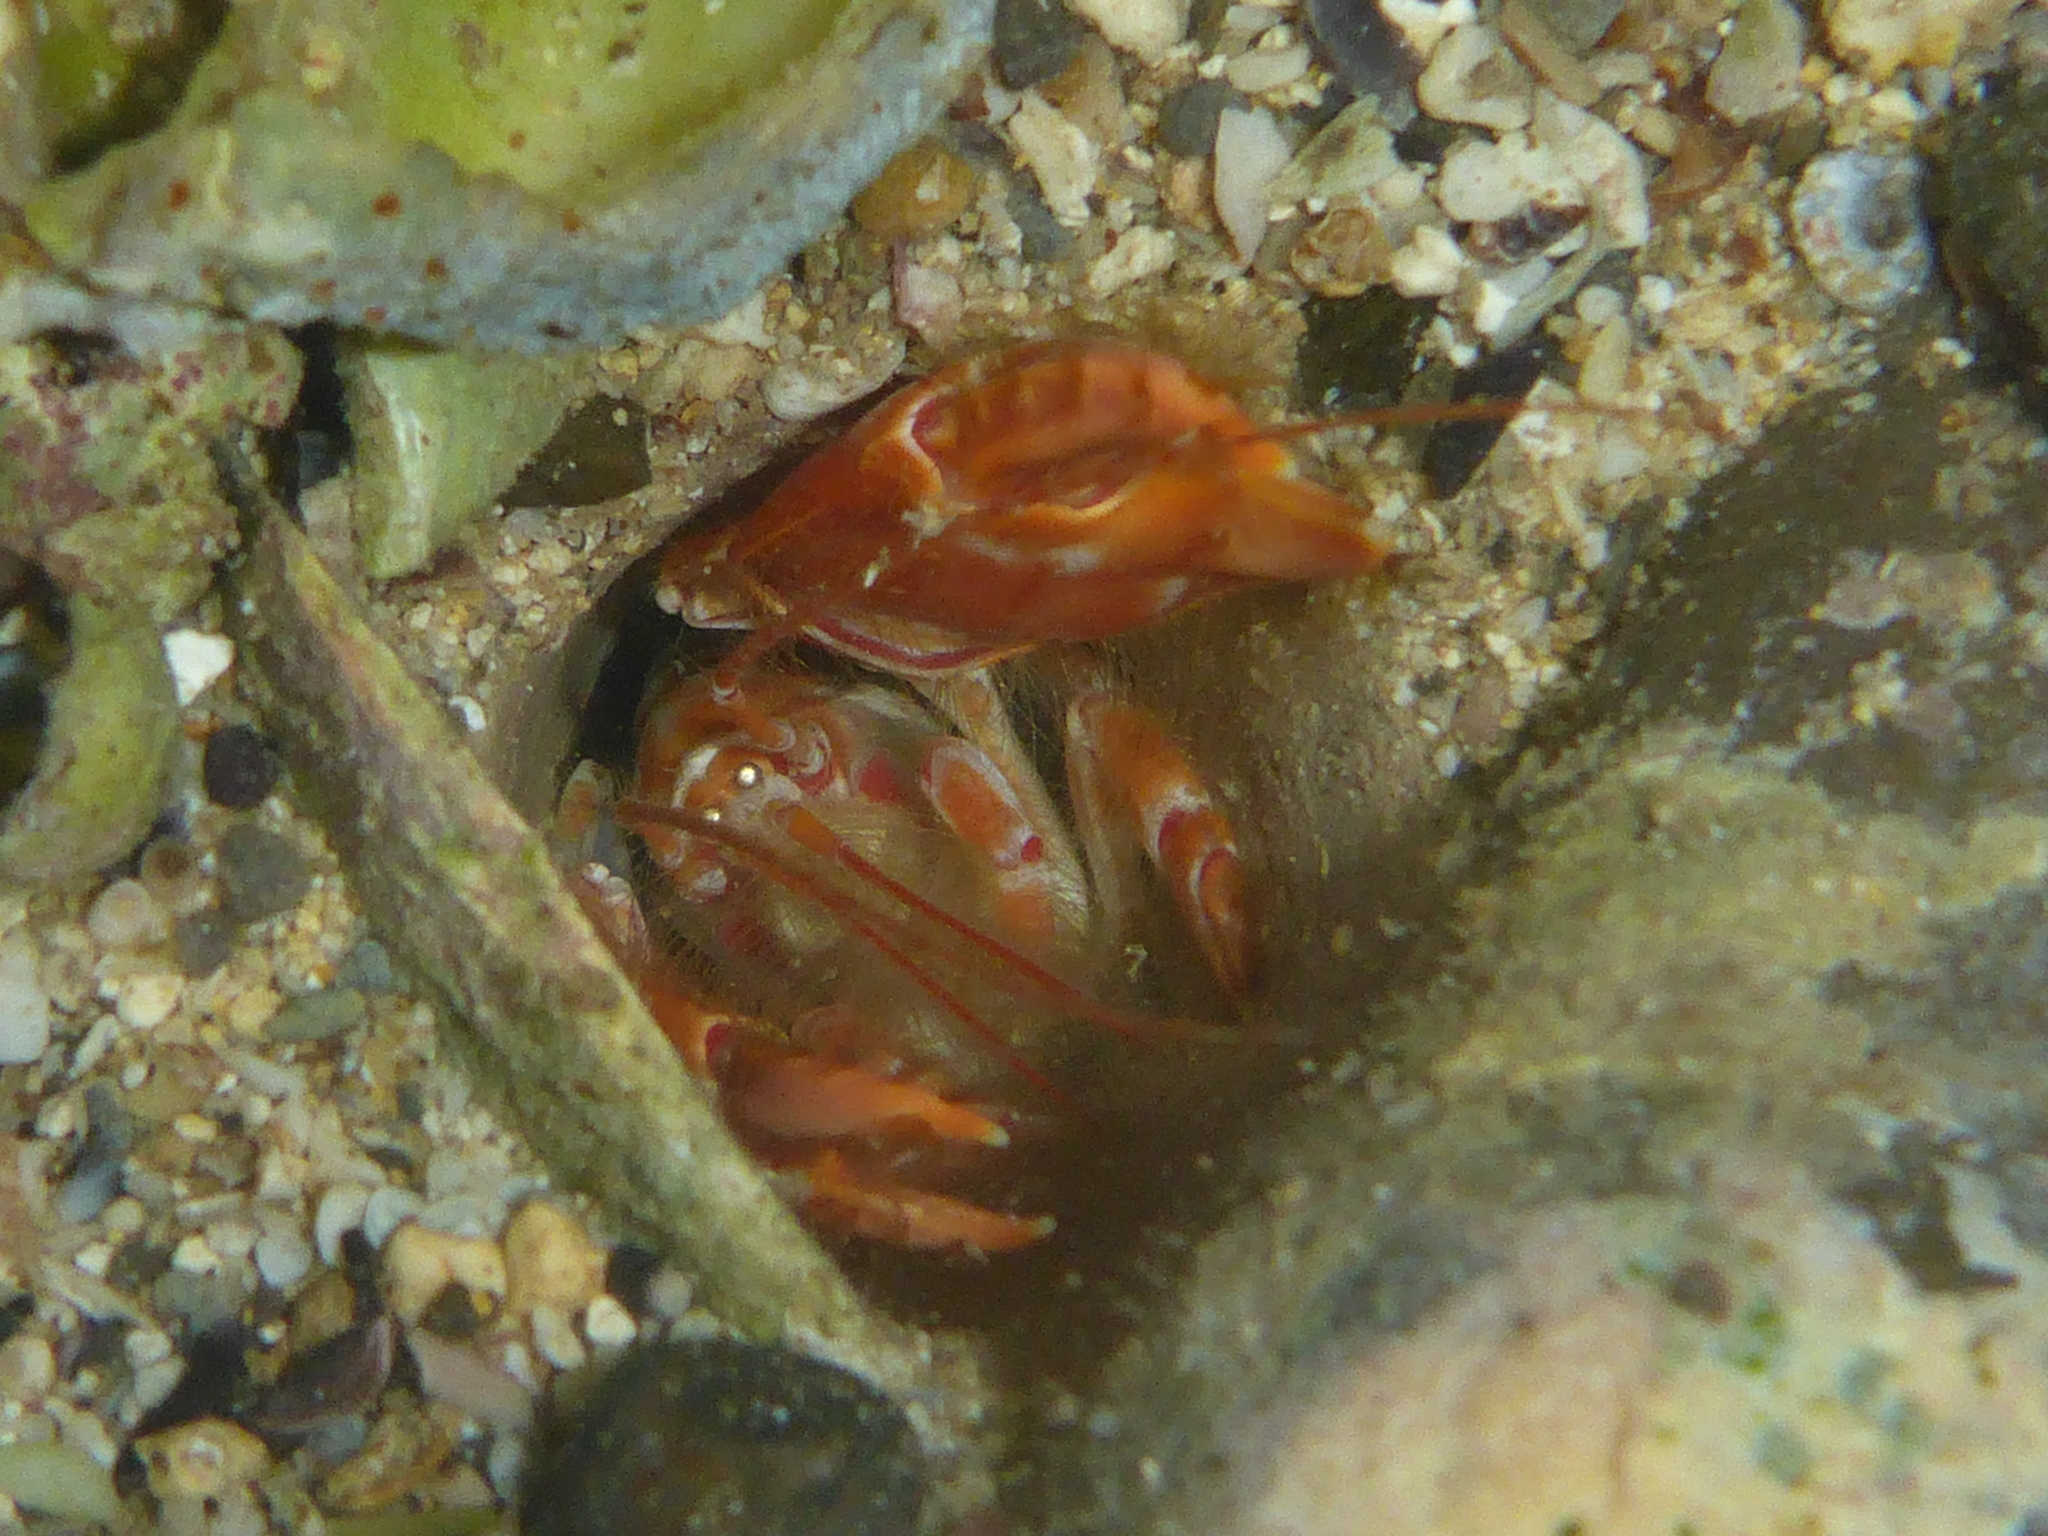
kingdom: Animalia
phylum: Arthropoda
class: Malacostraca
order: Decapoda
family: Callichiridae
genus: Corallianassa
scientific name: Corallianassa borradailei
